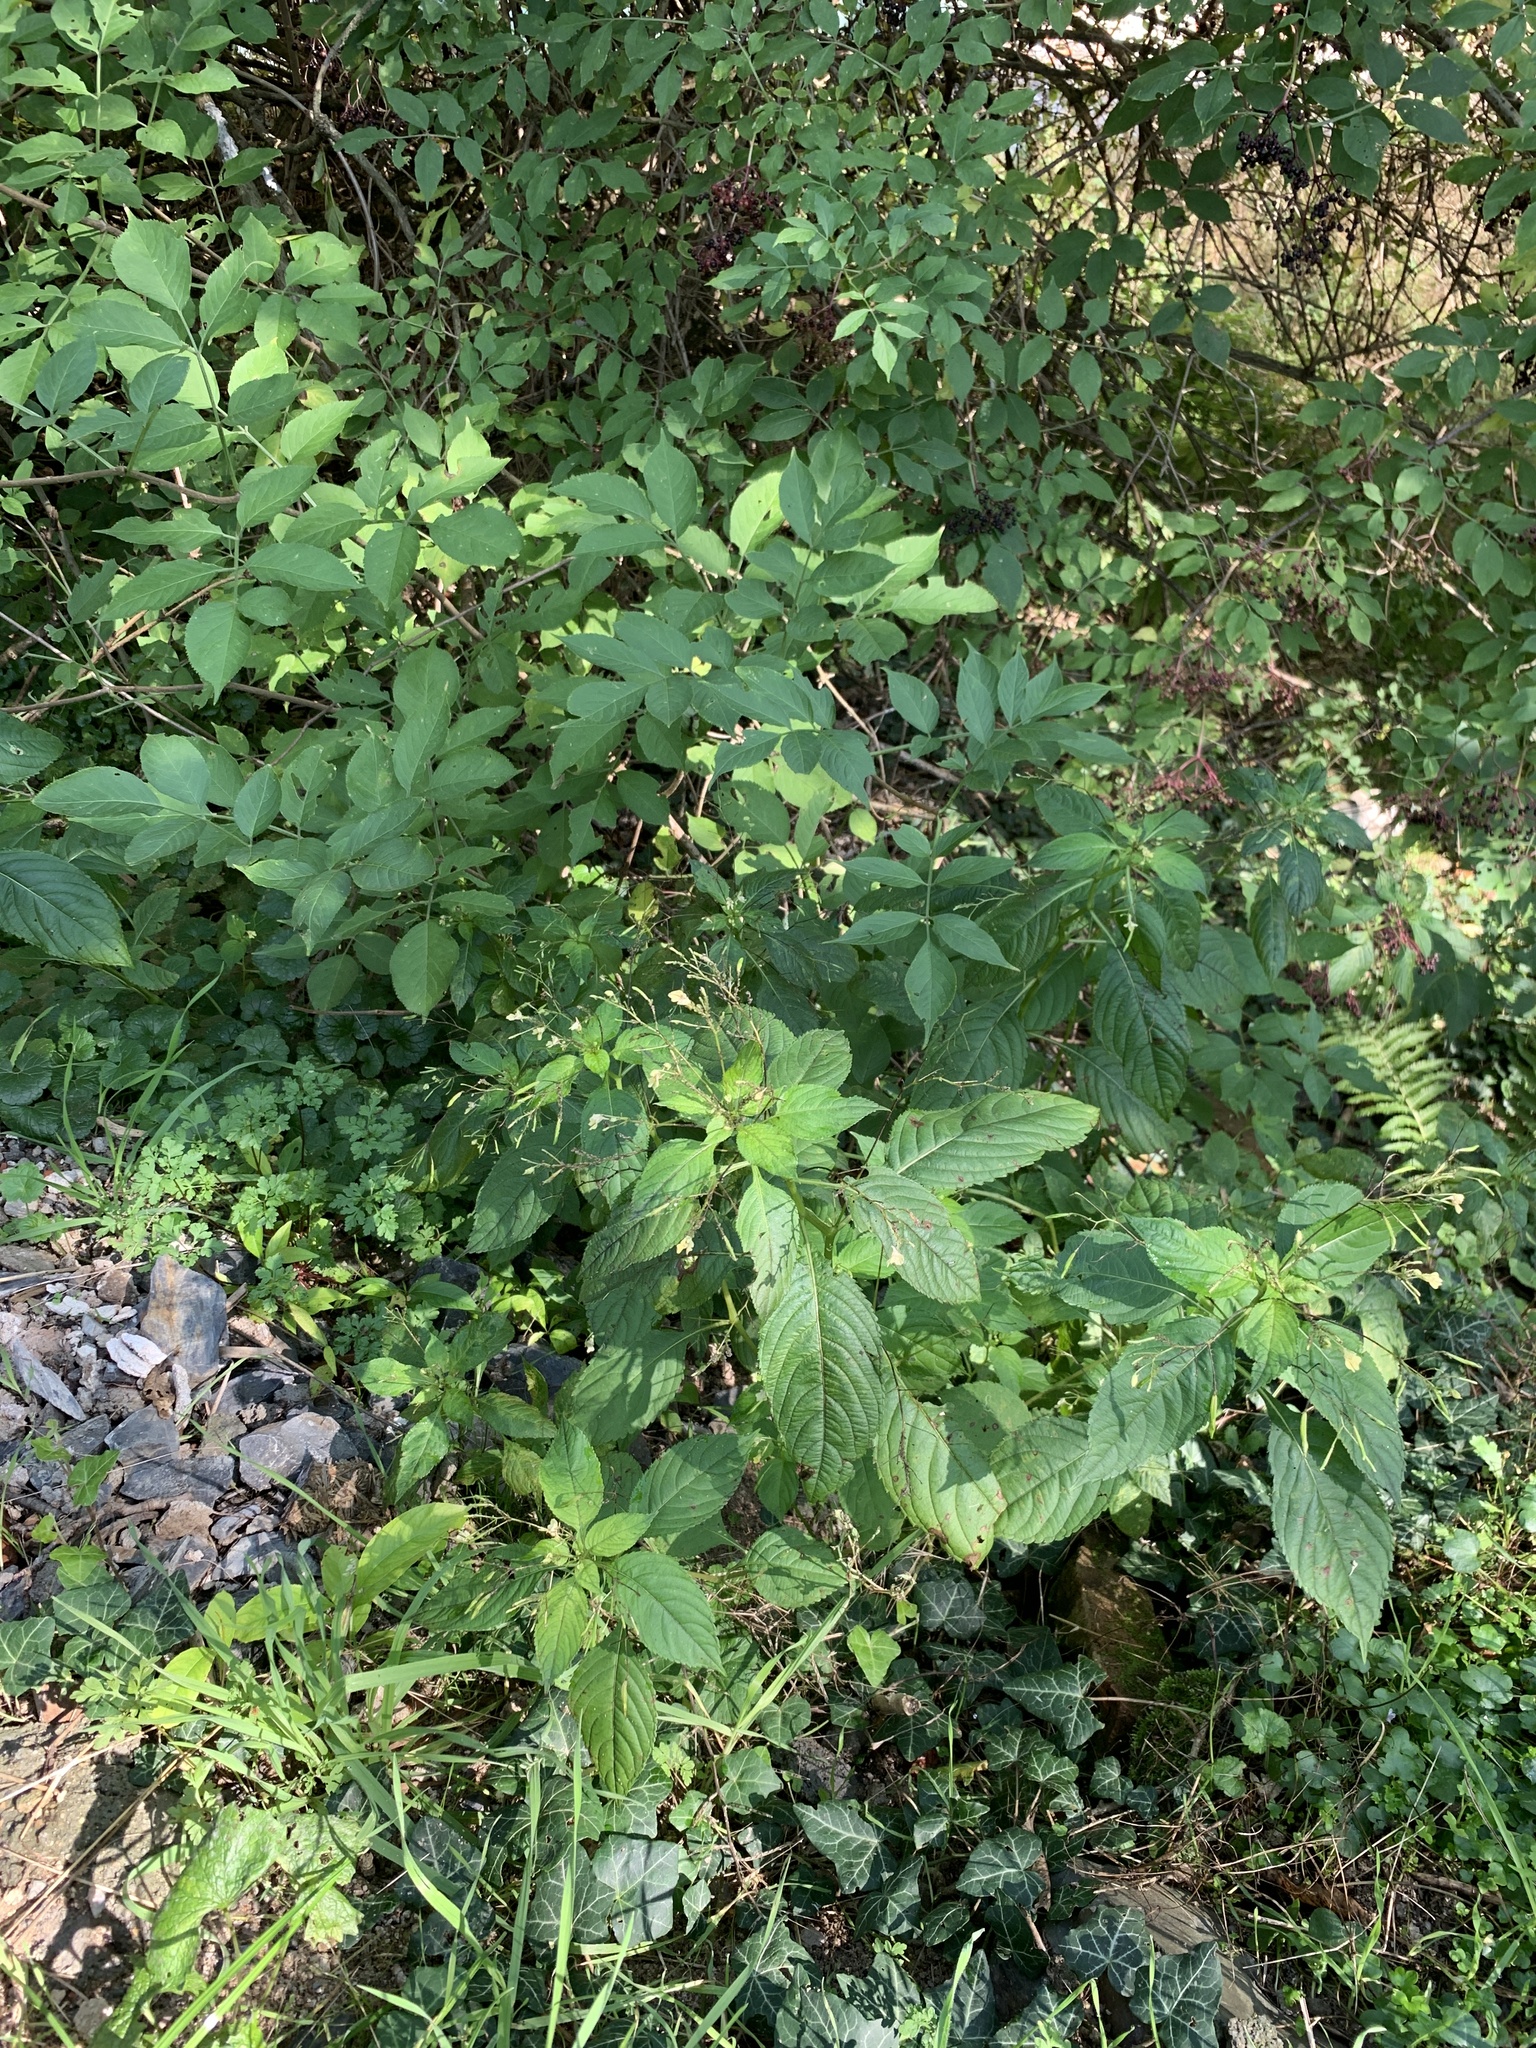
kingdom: Plantae
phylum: Tracheophyta
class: Magnoliopsida
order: Ericales
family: Balsaminaceae
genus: Impatiens
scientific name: Impatiens parviflora
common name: Small balsam
